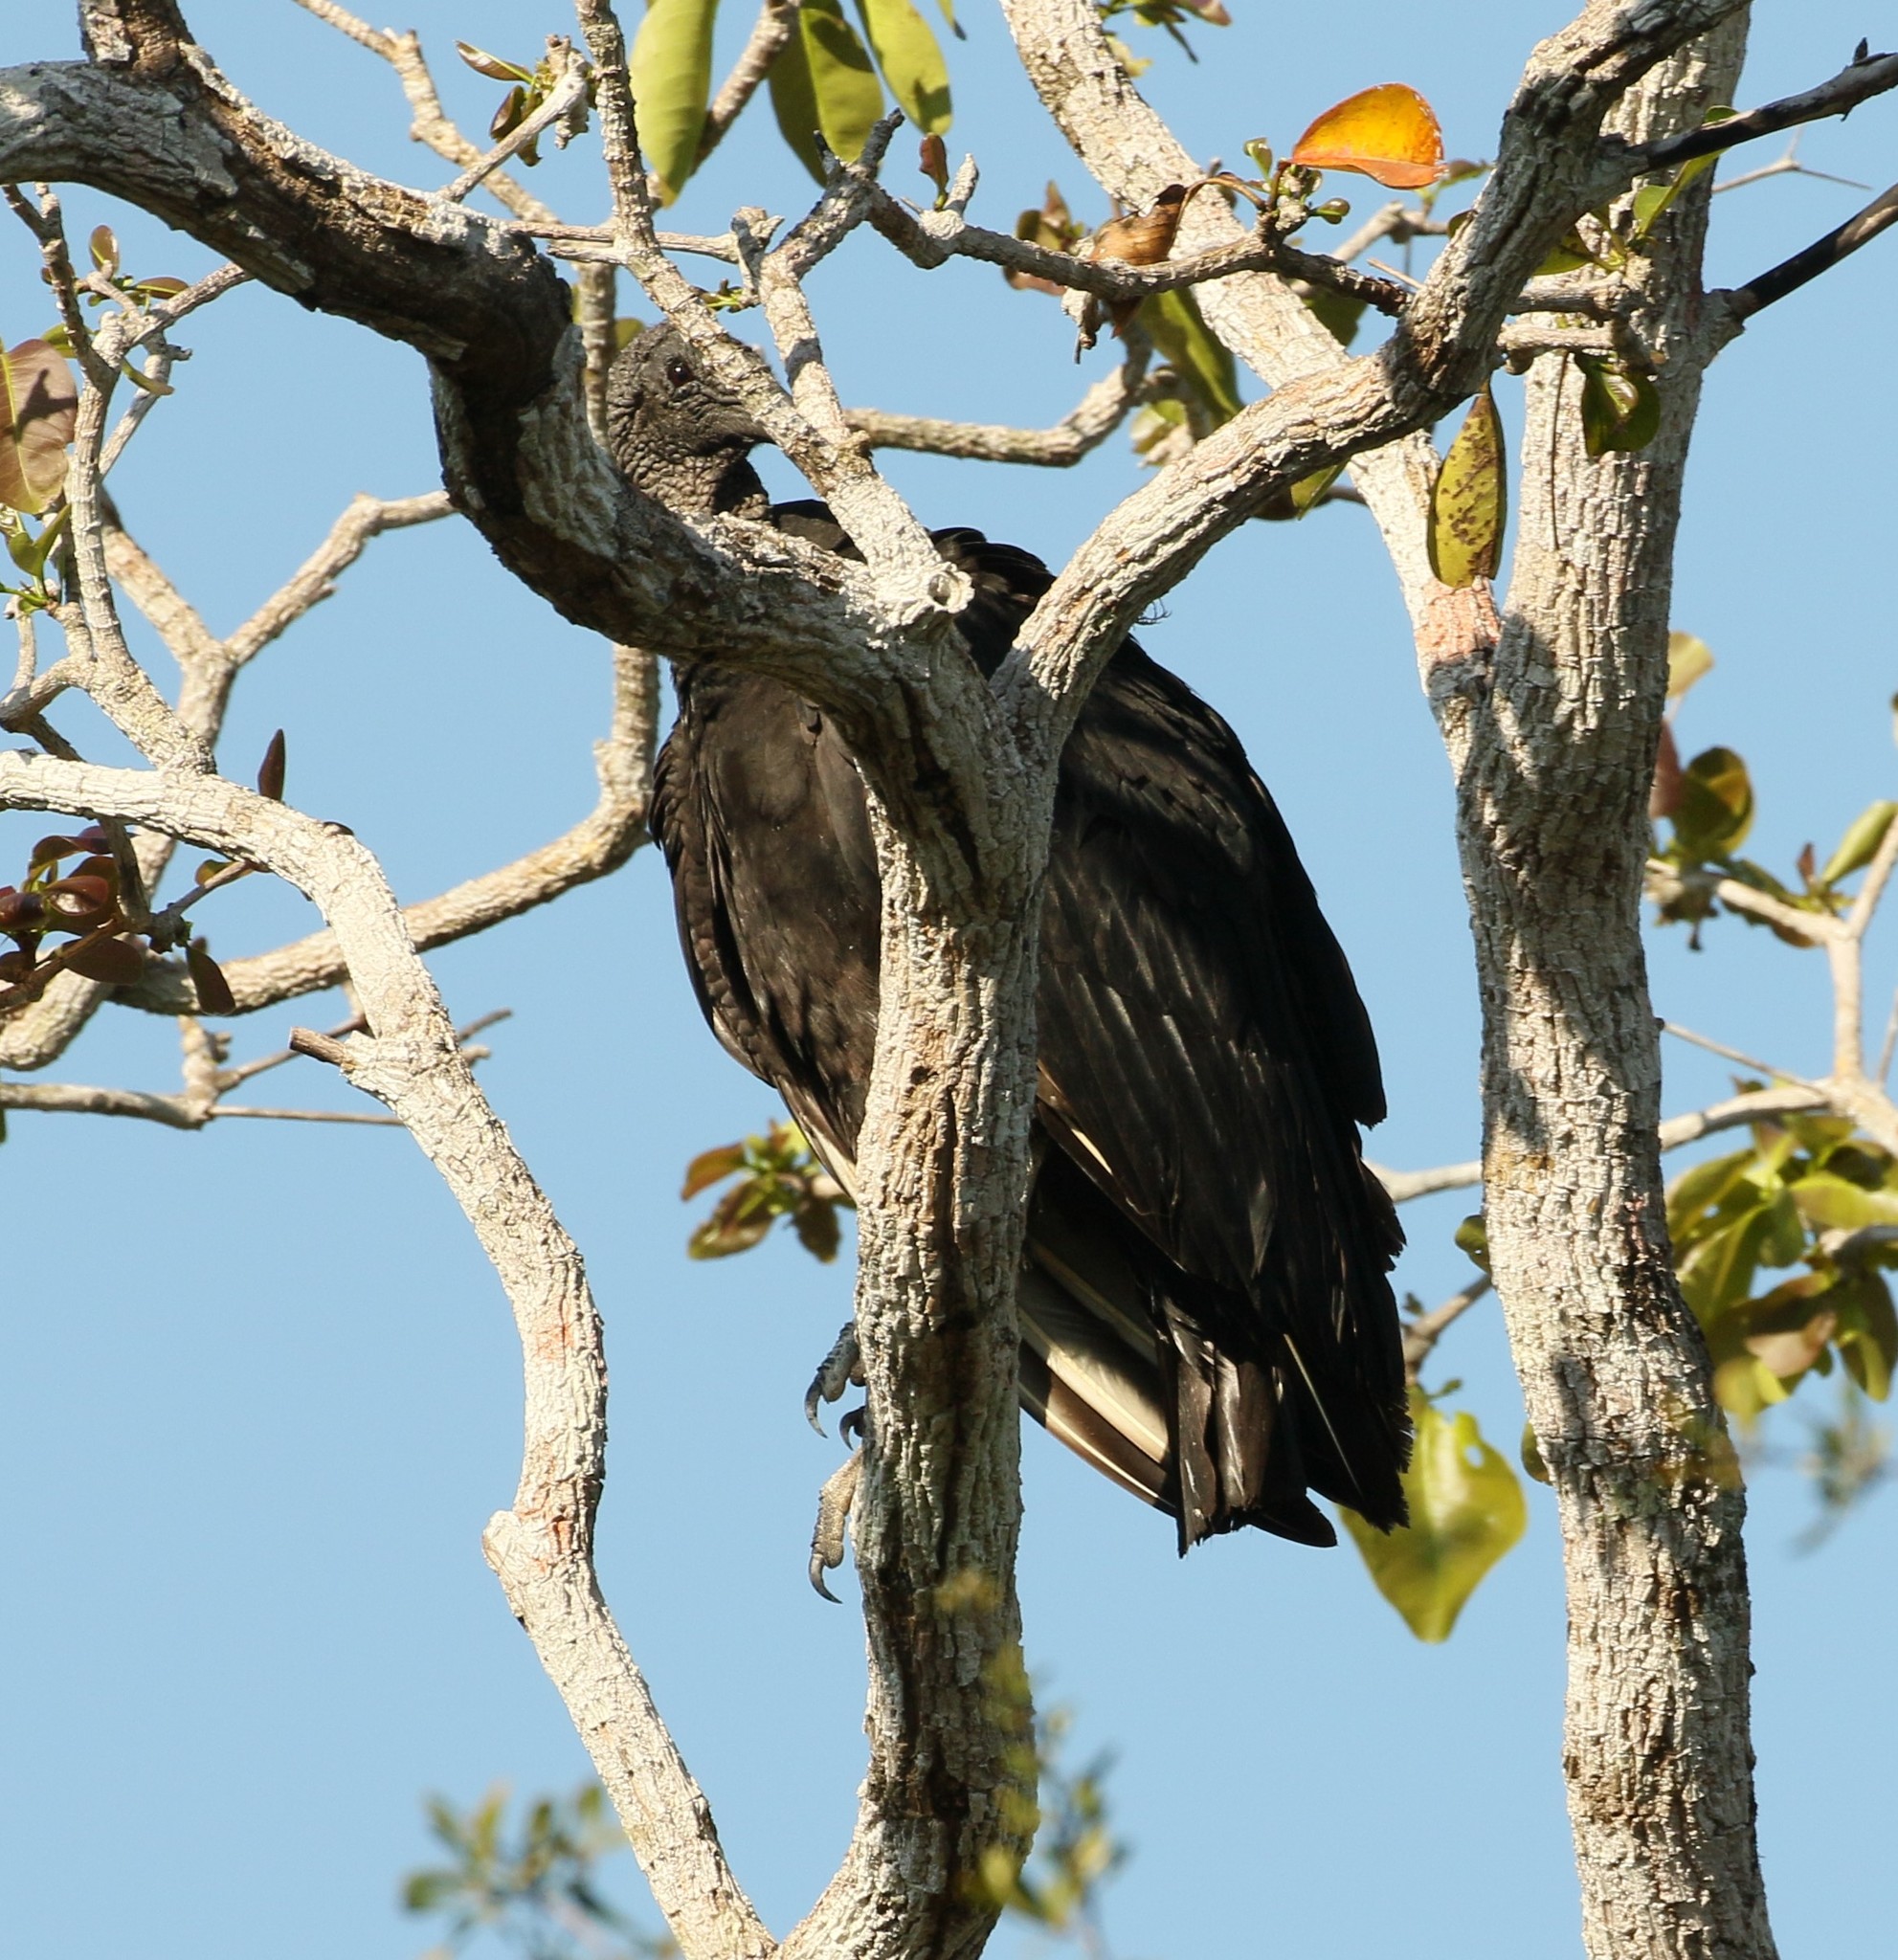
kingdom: Animalia
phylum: Chordata
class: Aves
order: Accipitriformes
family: Cathartidae
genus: Coragyps
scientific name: Coragyps atratus
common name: Black vulture
